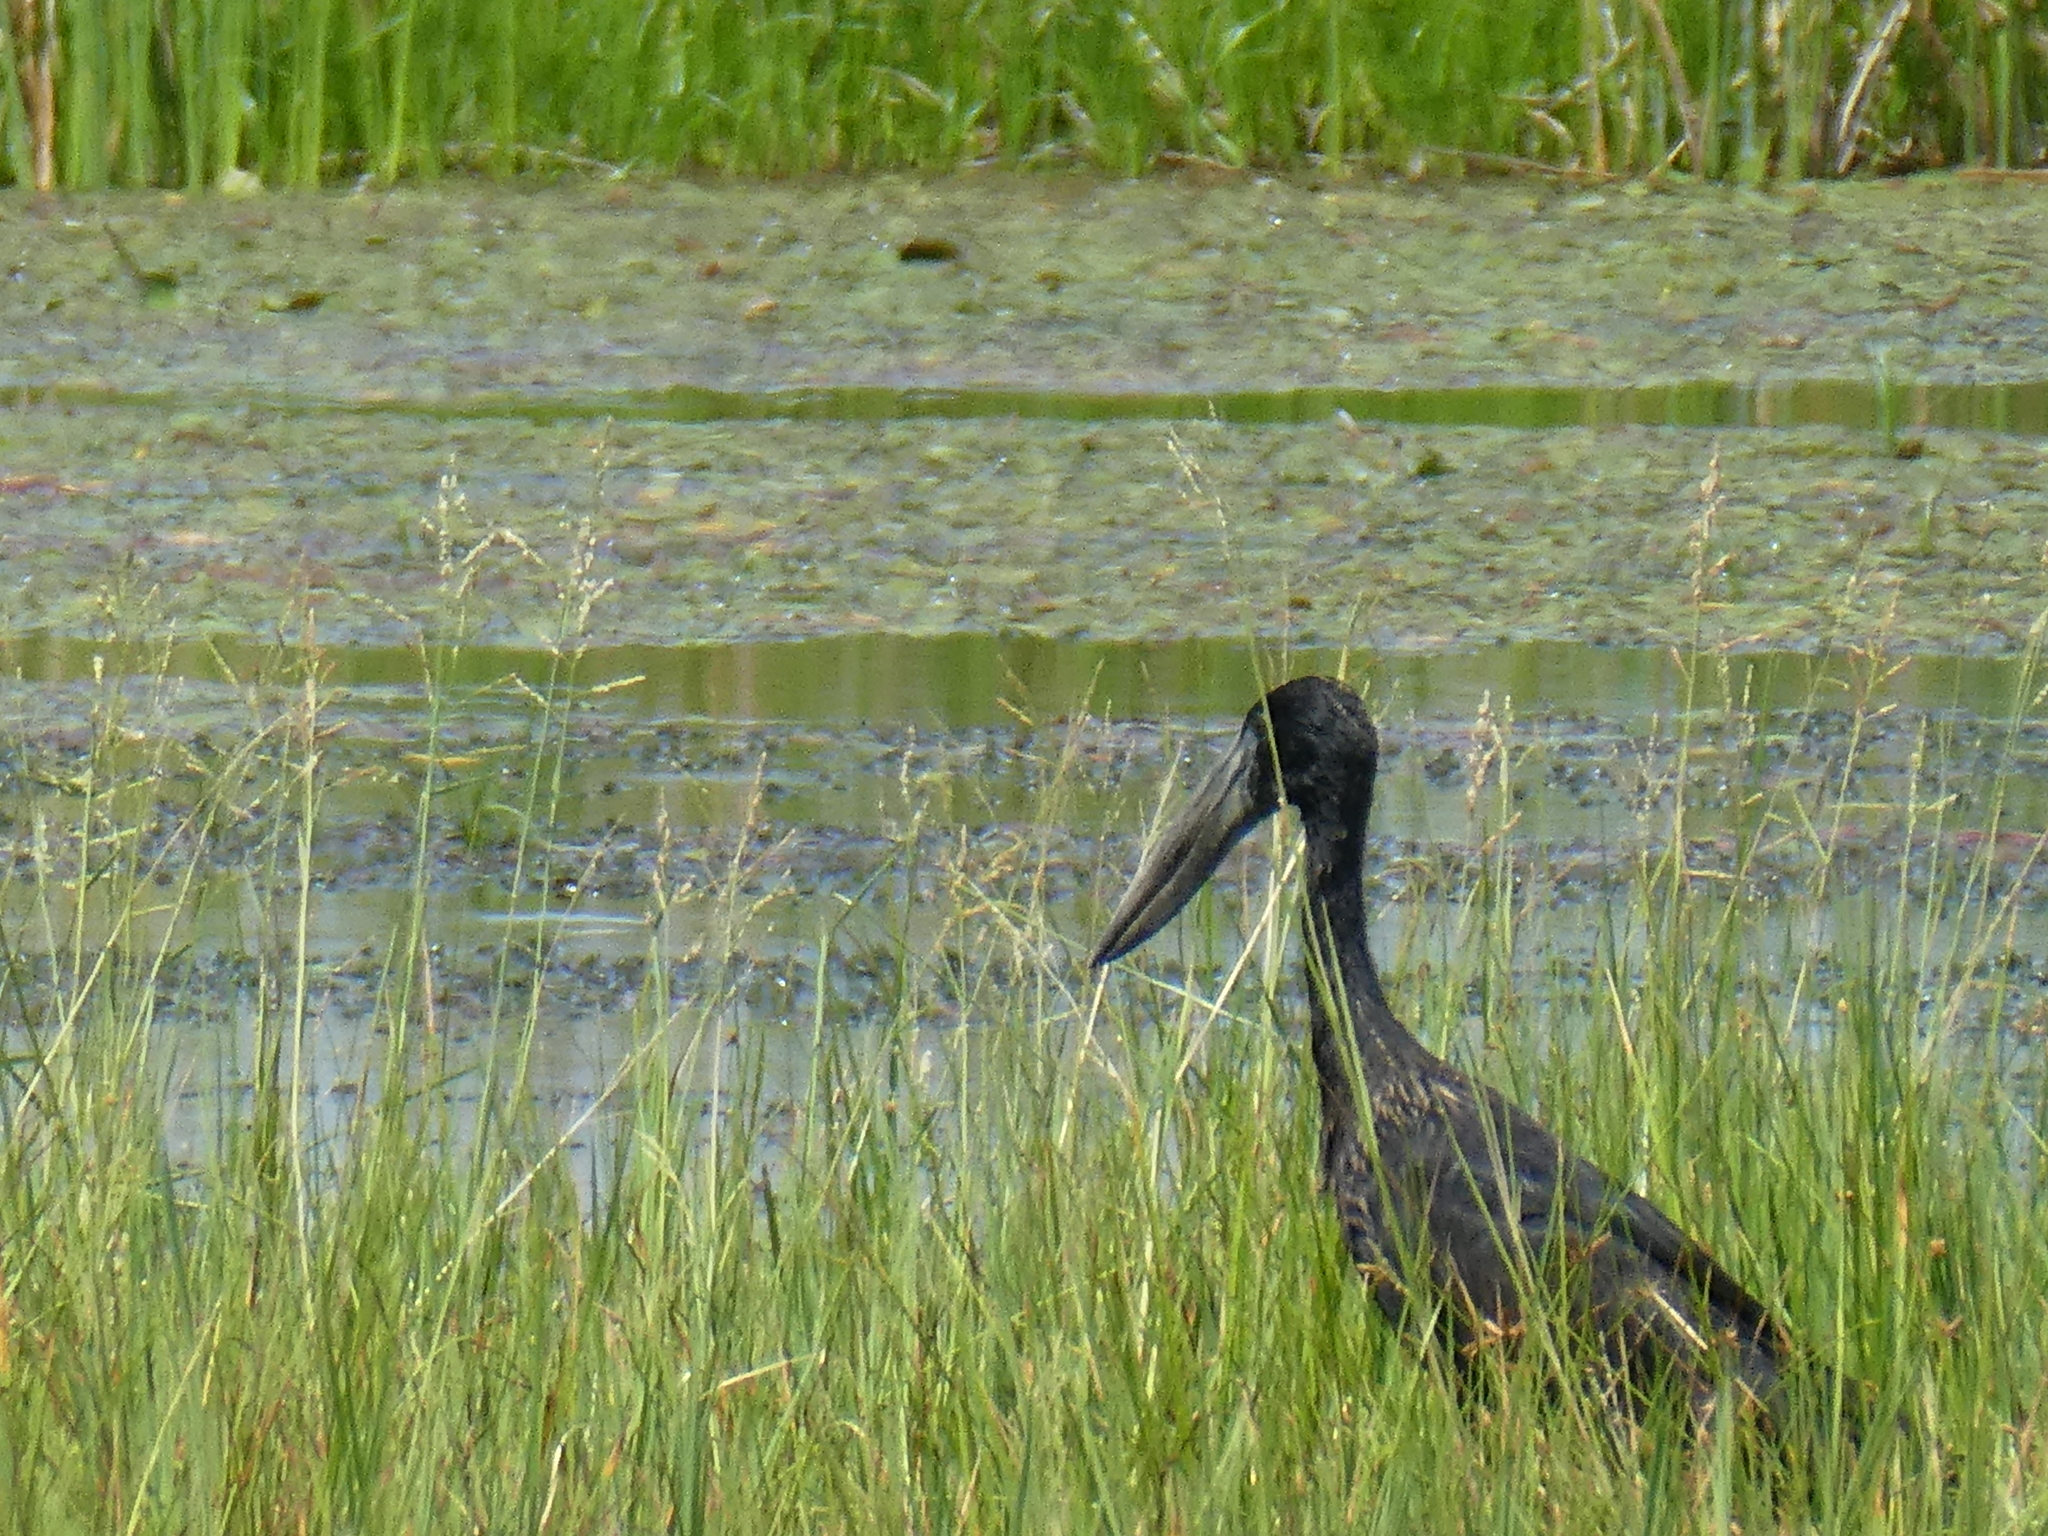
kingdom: Animalia
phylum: Chordata
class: Aves
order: Ciconiiformes
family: Ciconiidae
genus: Anastomus
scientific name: Anastomus lamelligerus
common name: African openbill
